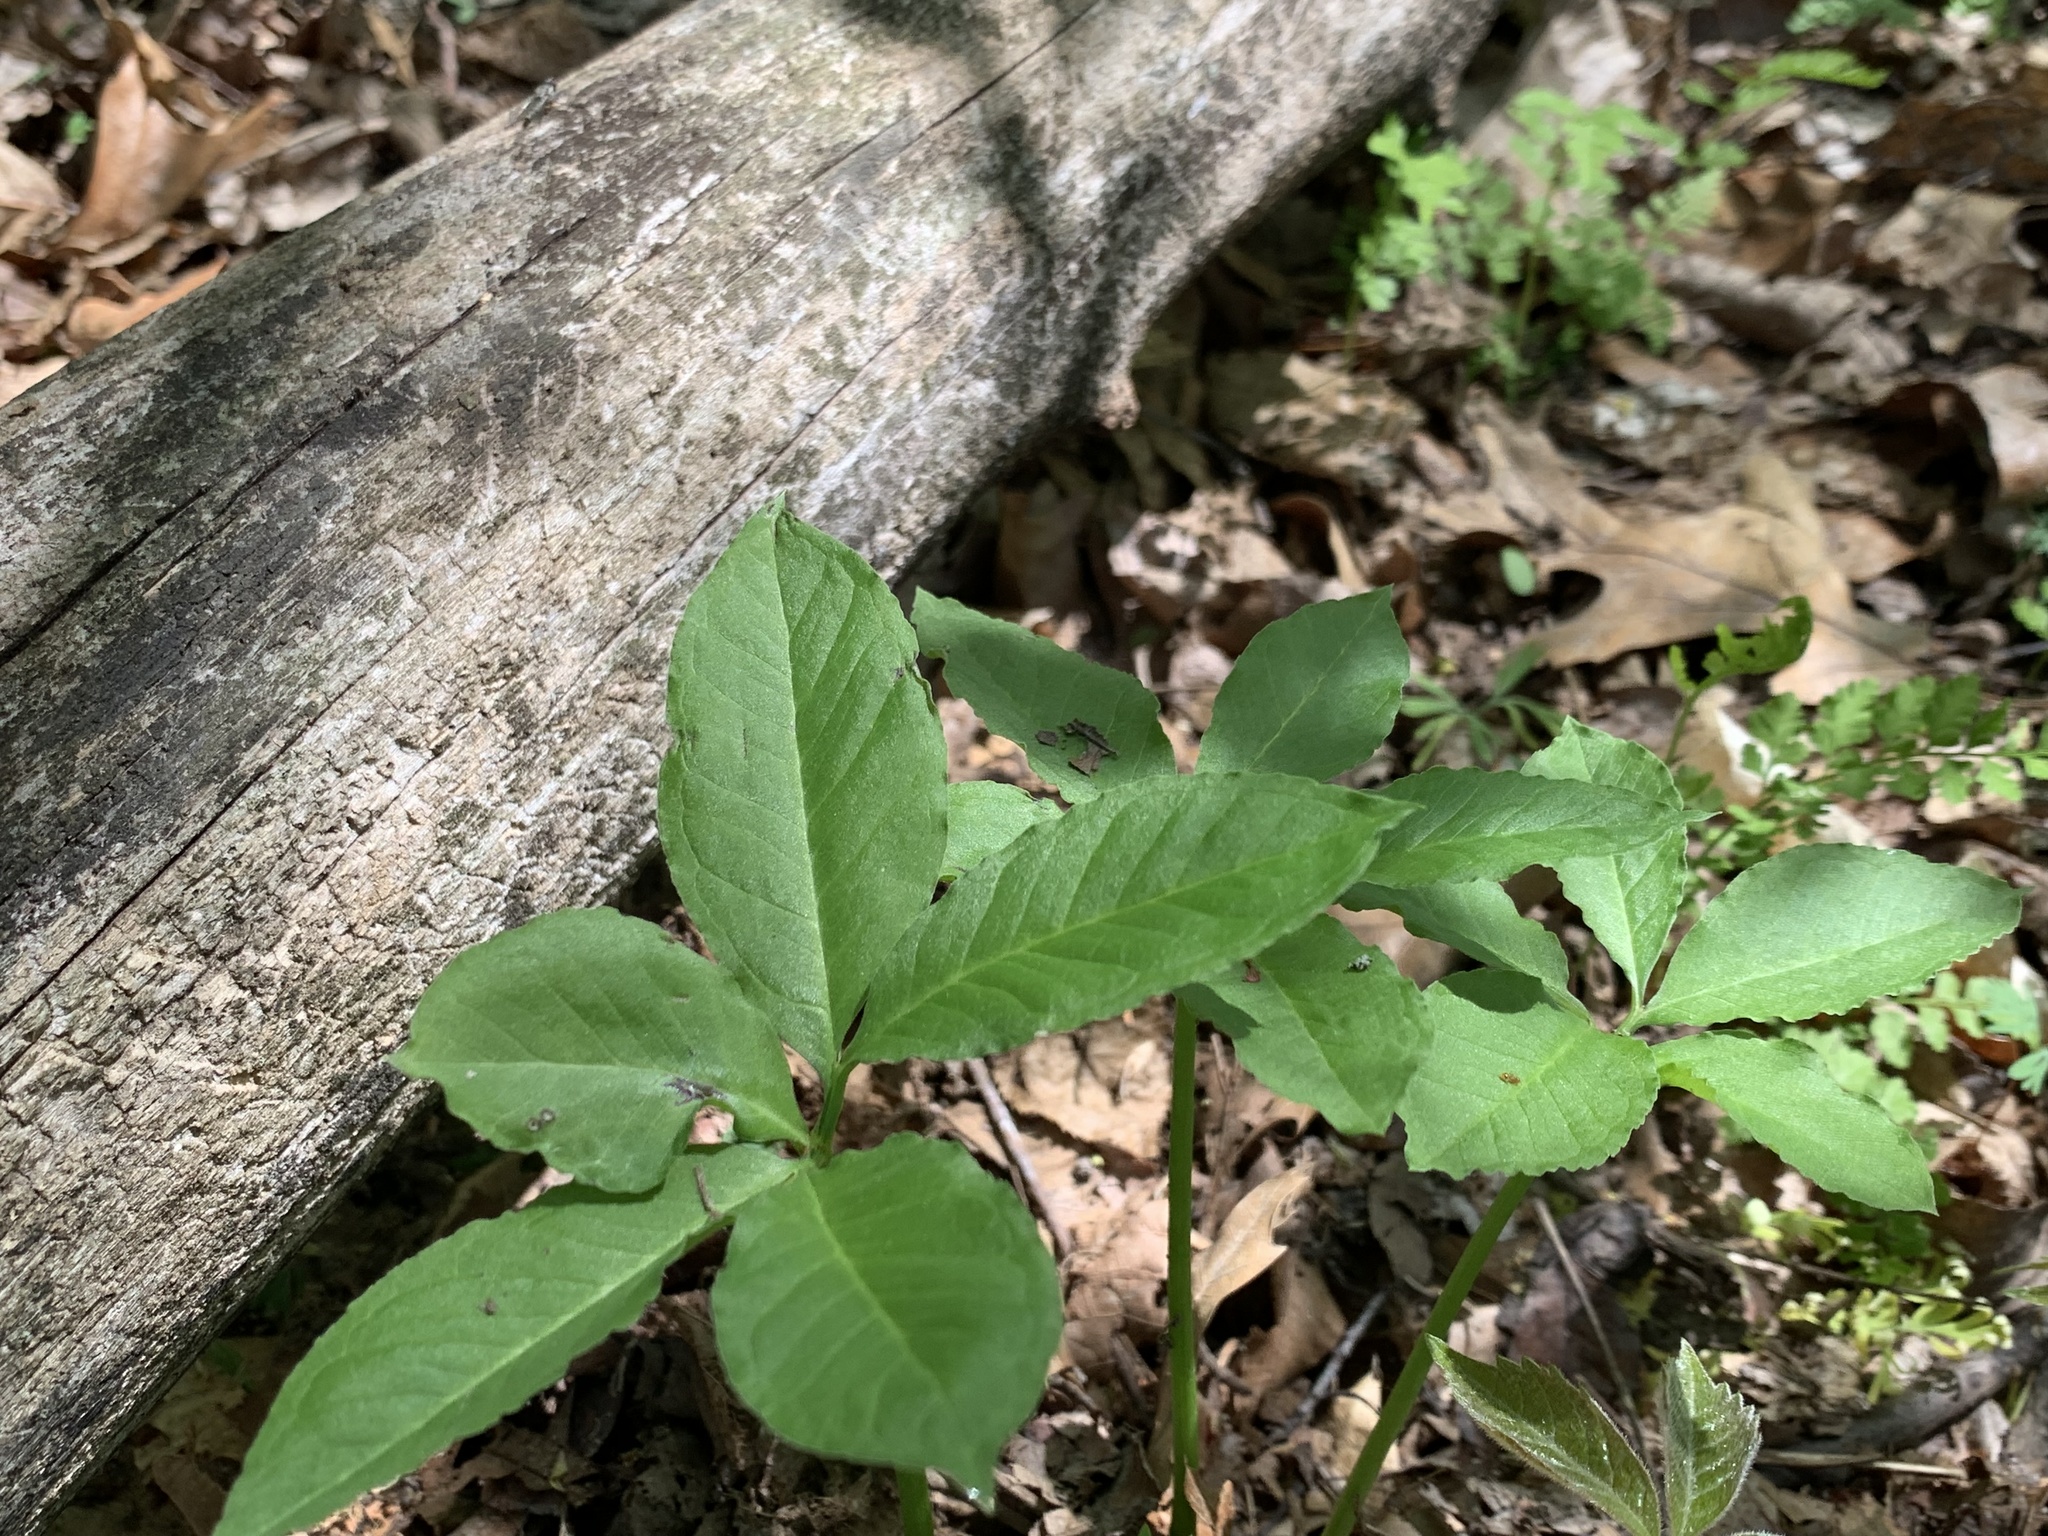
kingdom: Plantae
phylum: Tracheophyta
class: Liliopsida
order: Alismatales
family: Araceae
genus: Arisaema
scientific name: Arisaema dracontium
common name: Dragon-arum
